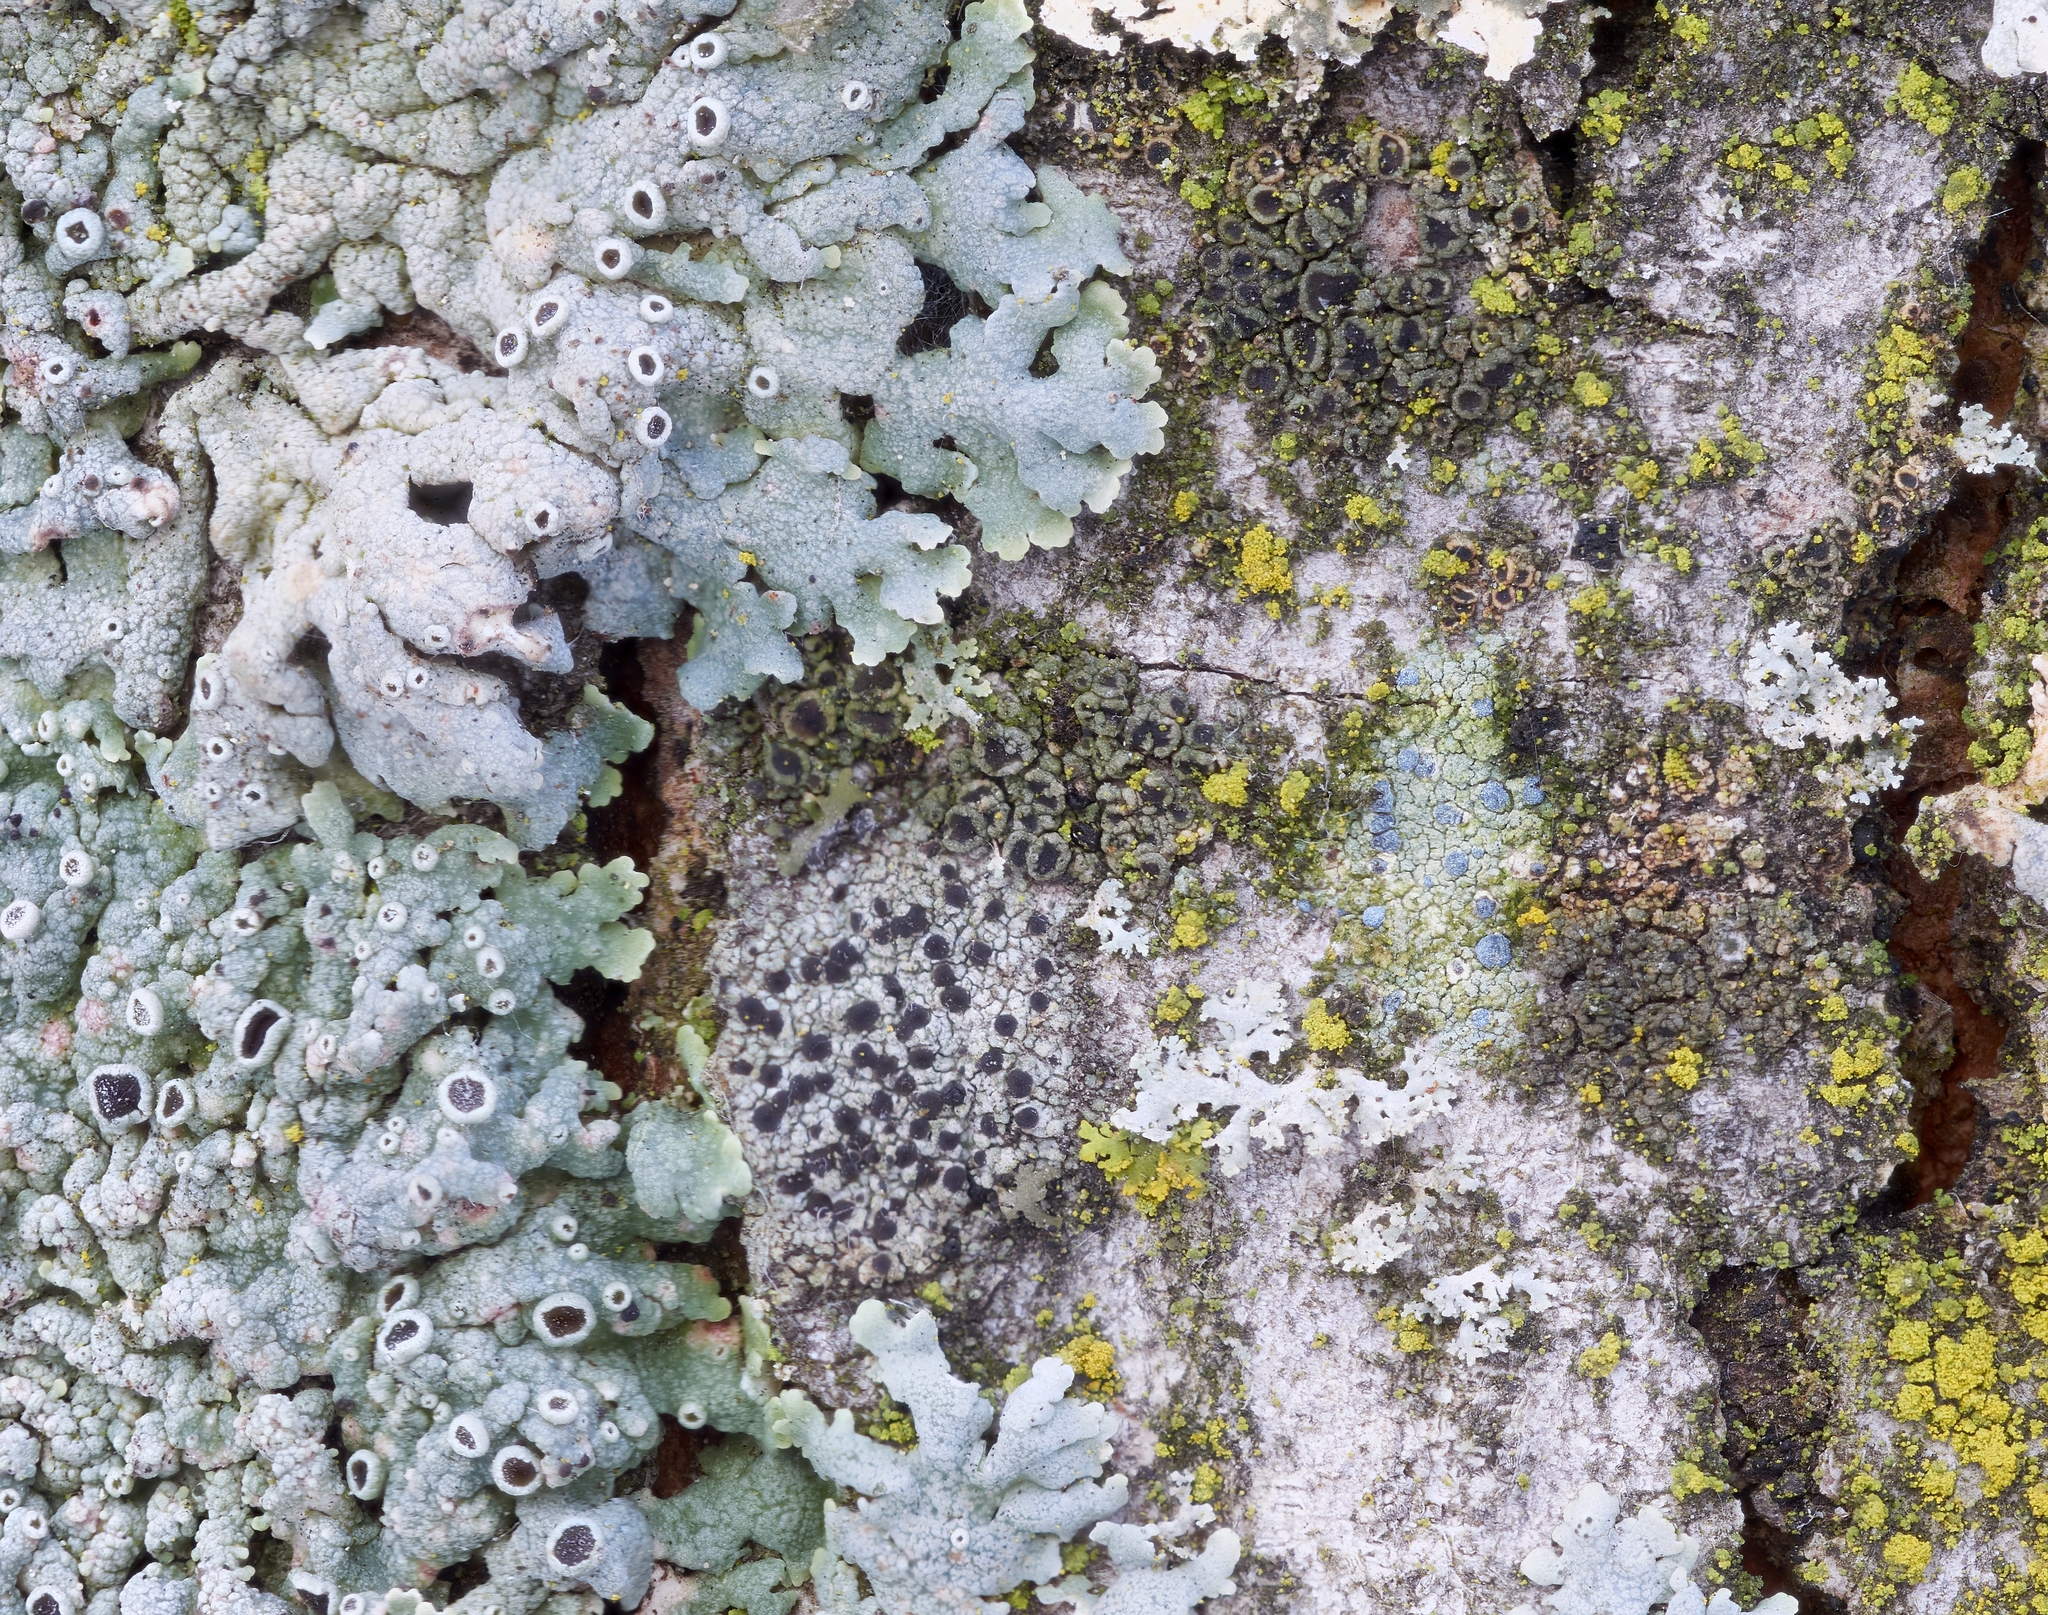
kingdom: Fungi
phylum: Ascomycota
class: Arthoniomycetes
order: Arthoniales
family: Chrysotrichaceae
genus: Chrysothrix
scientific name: Chrysothrix caesia
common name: Frosted comma lichen
